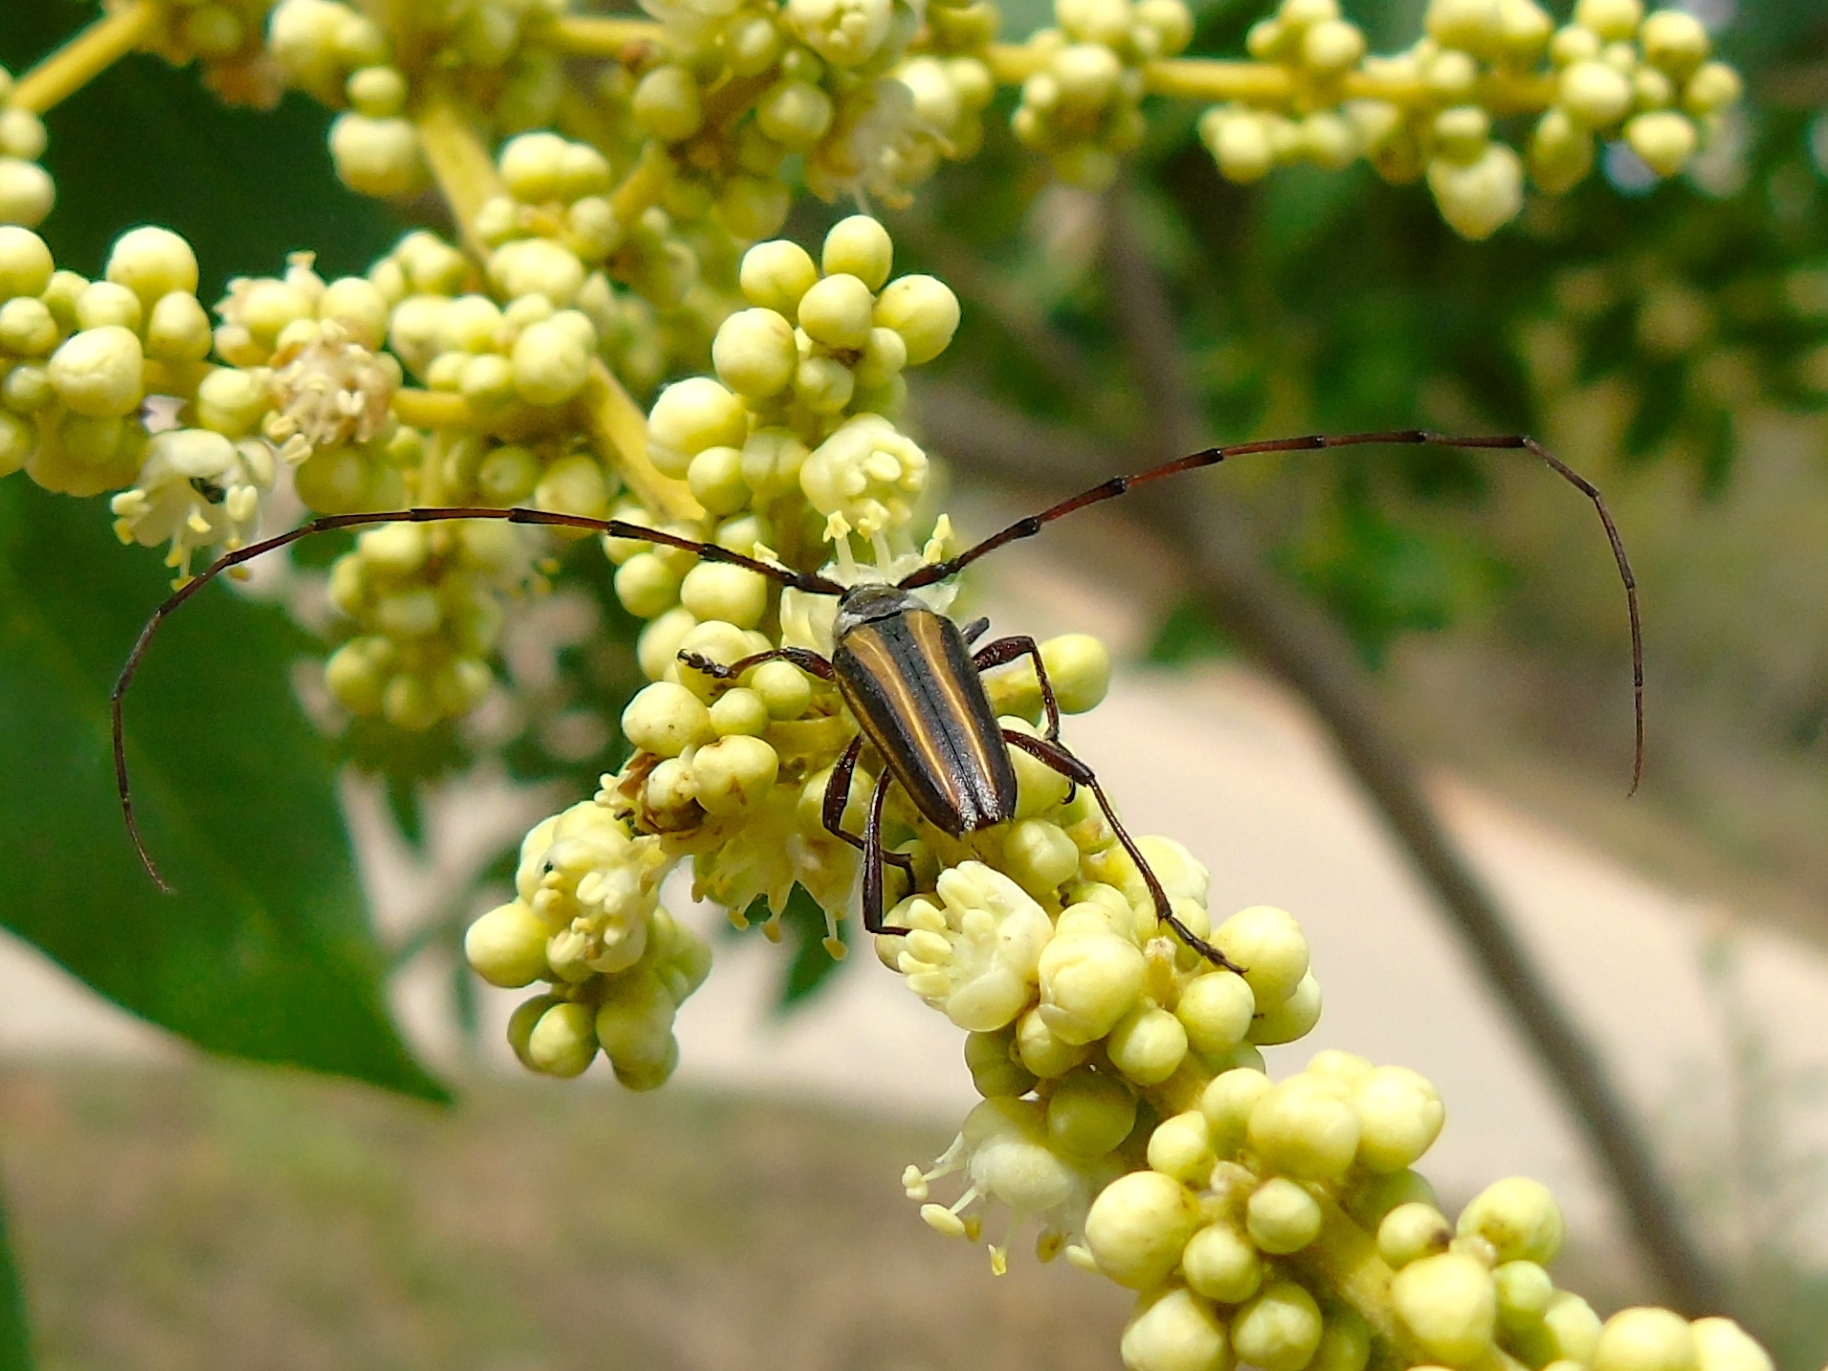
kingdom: Animalia
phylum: Arthropoda
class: Insecta
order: Coleoptera
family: Cerambycidae
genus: Sphaenothecus
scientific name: Sphaenothecus maccartyi
